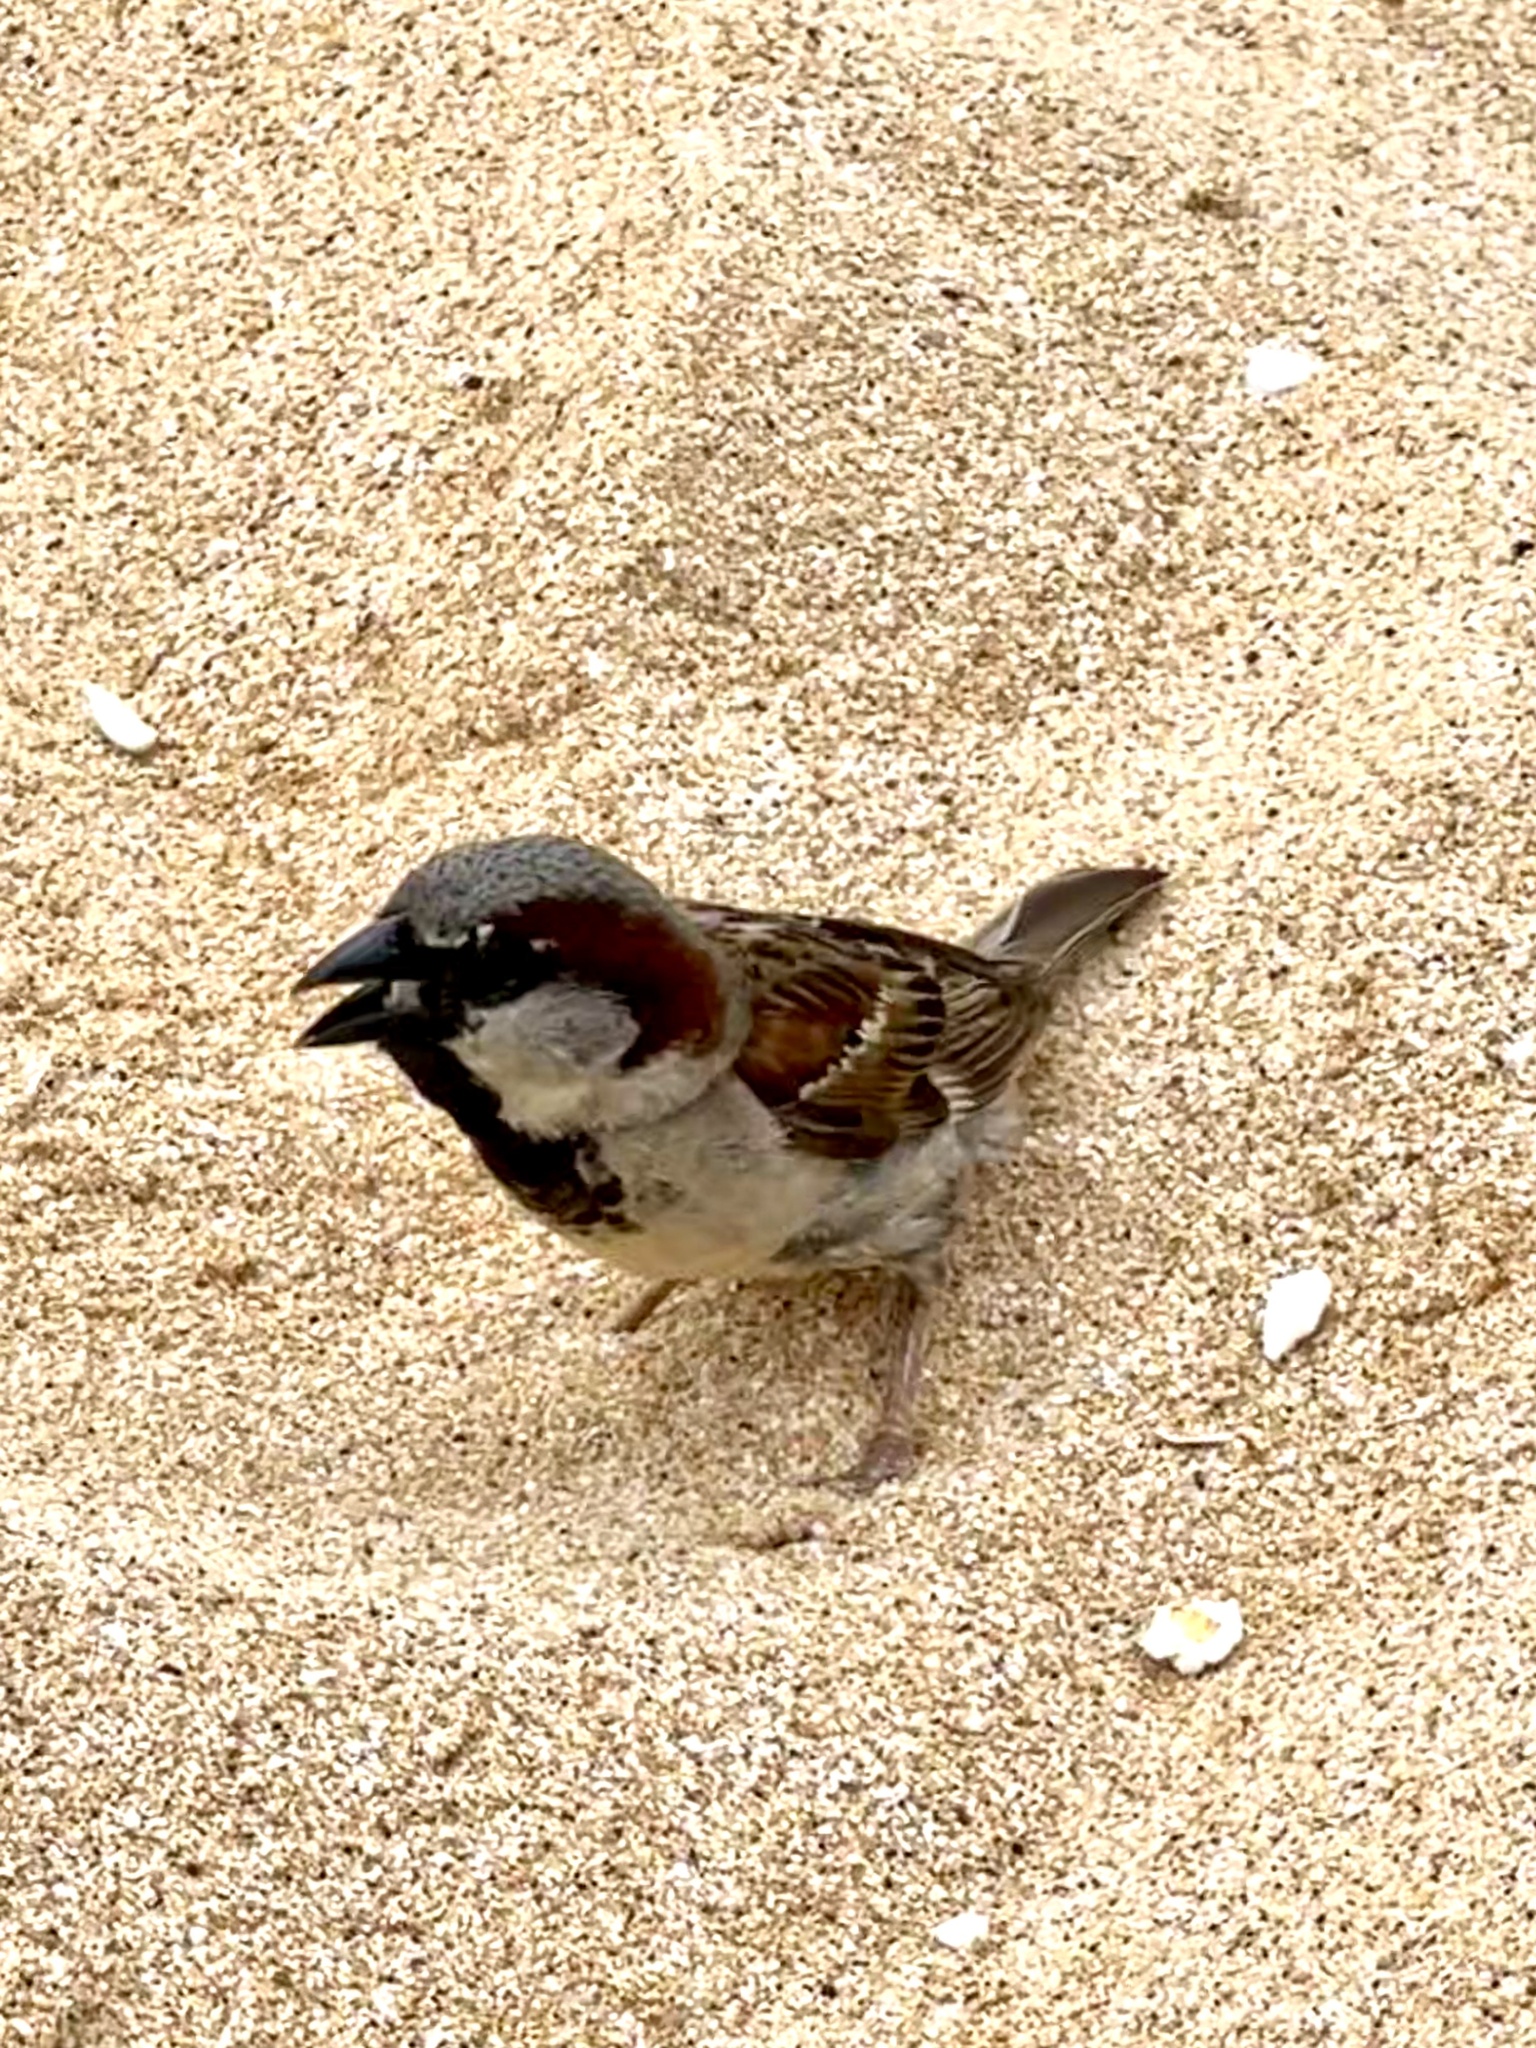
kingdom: Animalia
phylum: Chordata
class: Aves
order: Passeriformes
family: Passeridae
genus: Passer
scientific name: Passer domesticus
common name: House sparrow
